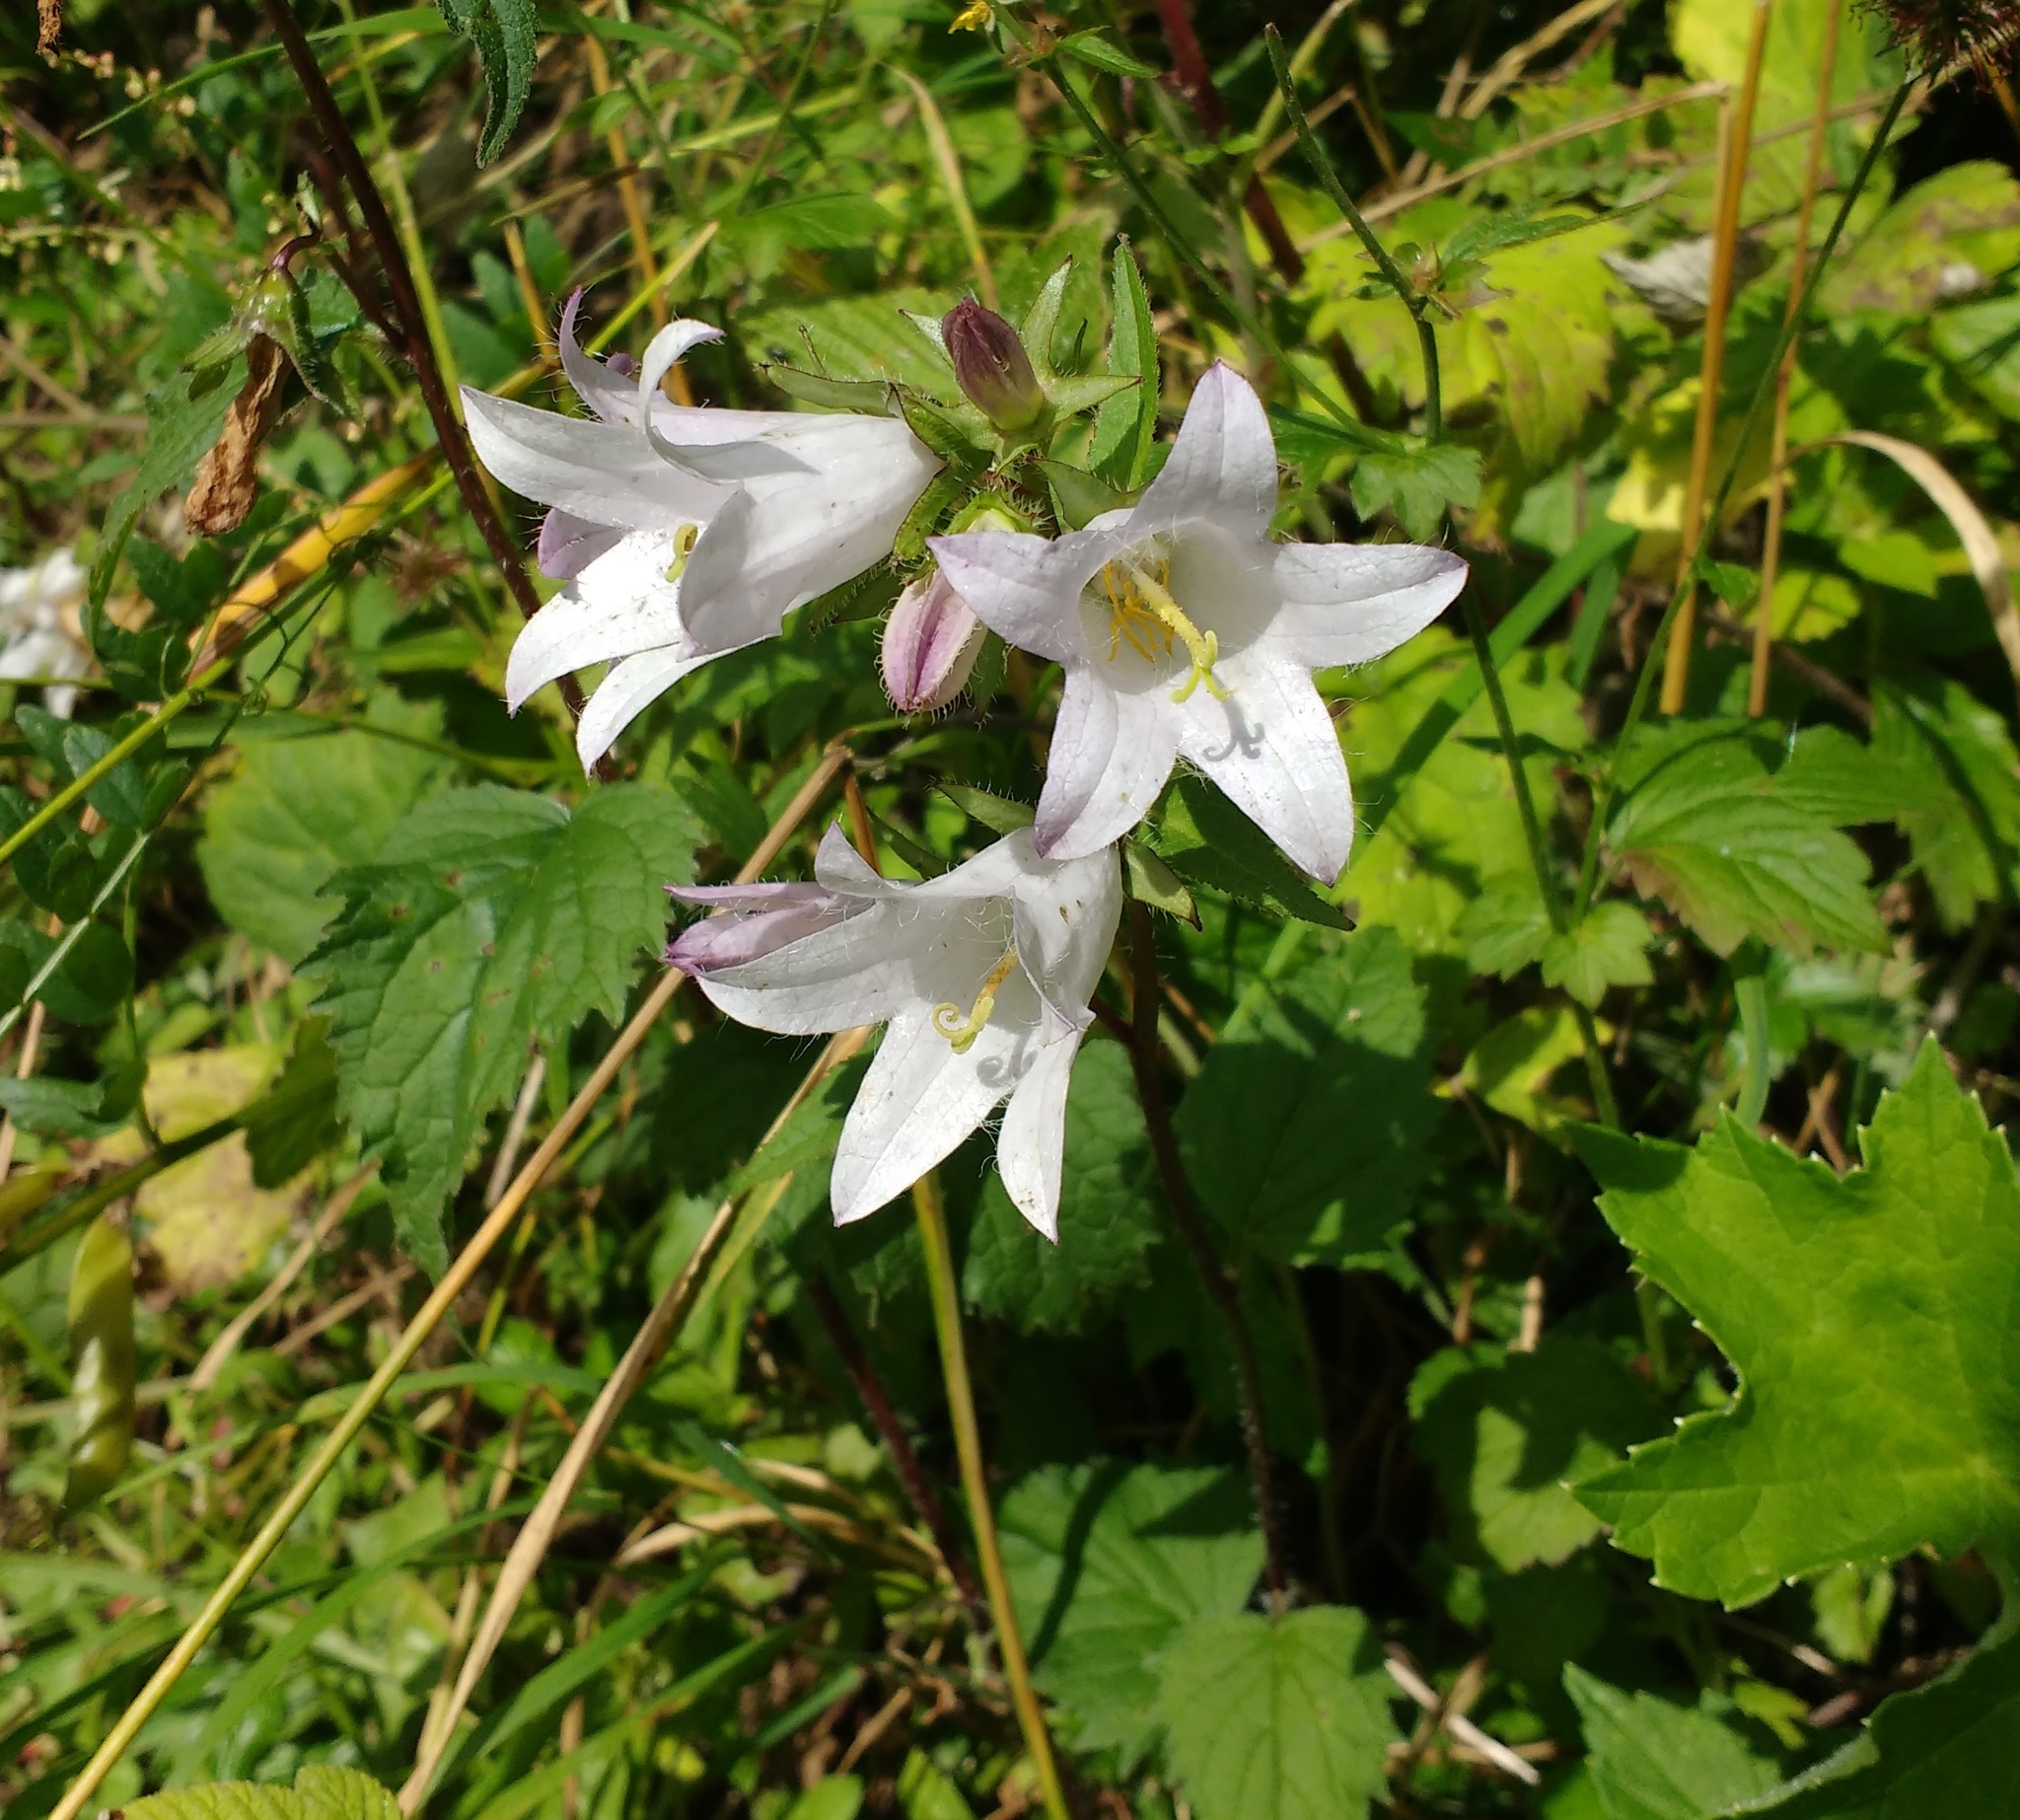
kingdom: Plantae
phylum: Tracheophyta
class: Magnoliopsida
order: Asterales
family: Campanulaceae
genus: Campanula
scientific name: Campanula trachelium
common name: Nettle-leaved bellflower
